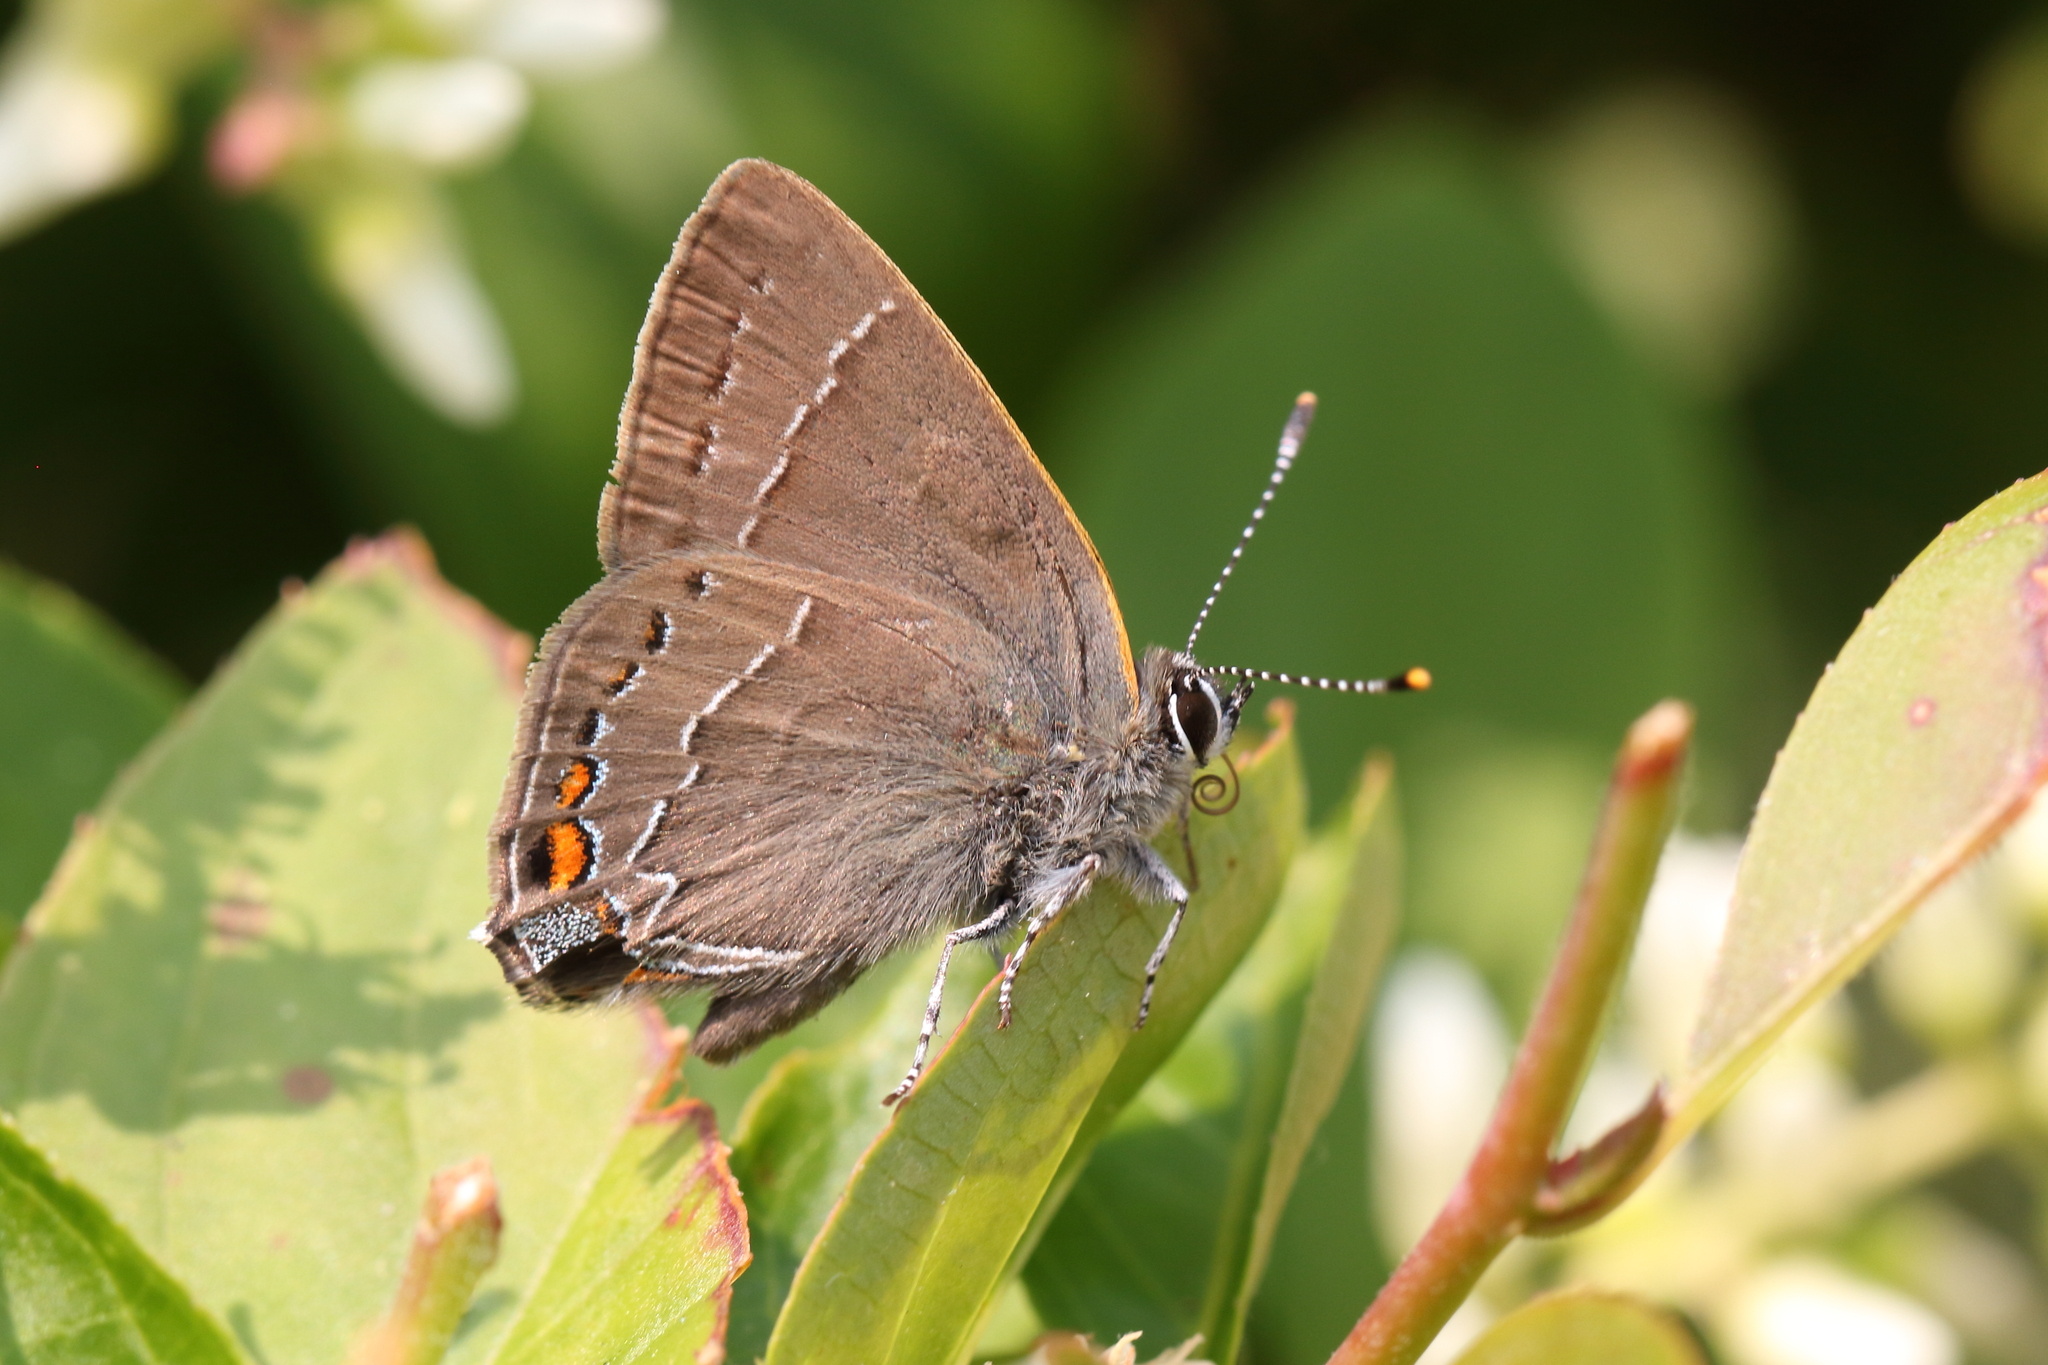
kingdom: Animalia
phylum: Arthropoda
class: Insecta
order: Lepidoptera
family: Lycaenidae
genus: Fixsenia
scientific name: Fixsenia favonius
